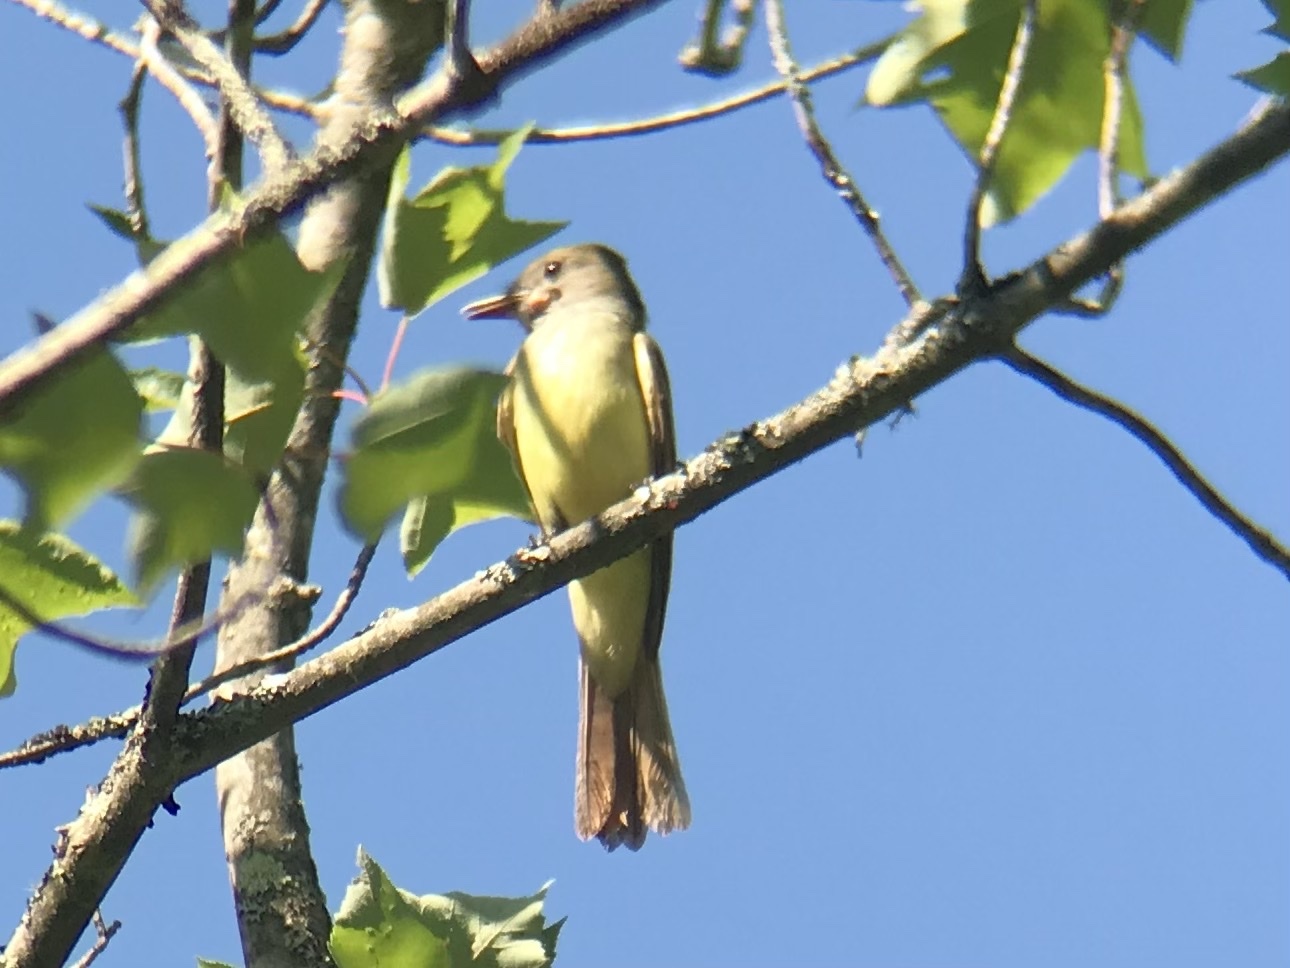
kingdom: Animalia
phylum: Chordata
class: Aves
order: Passeriformes
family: Tyrannidae
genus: Myiarchus
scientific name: Myiarchus crinitus
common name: Great crested flycatcher
